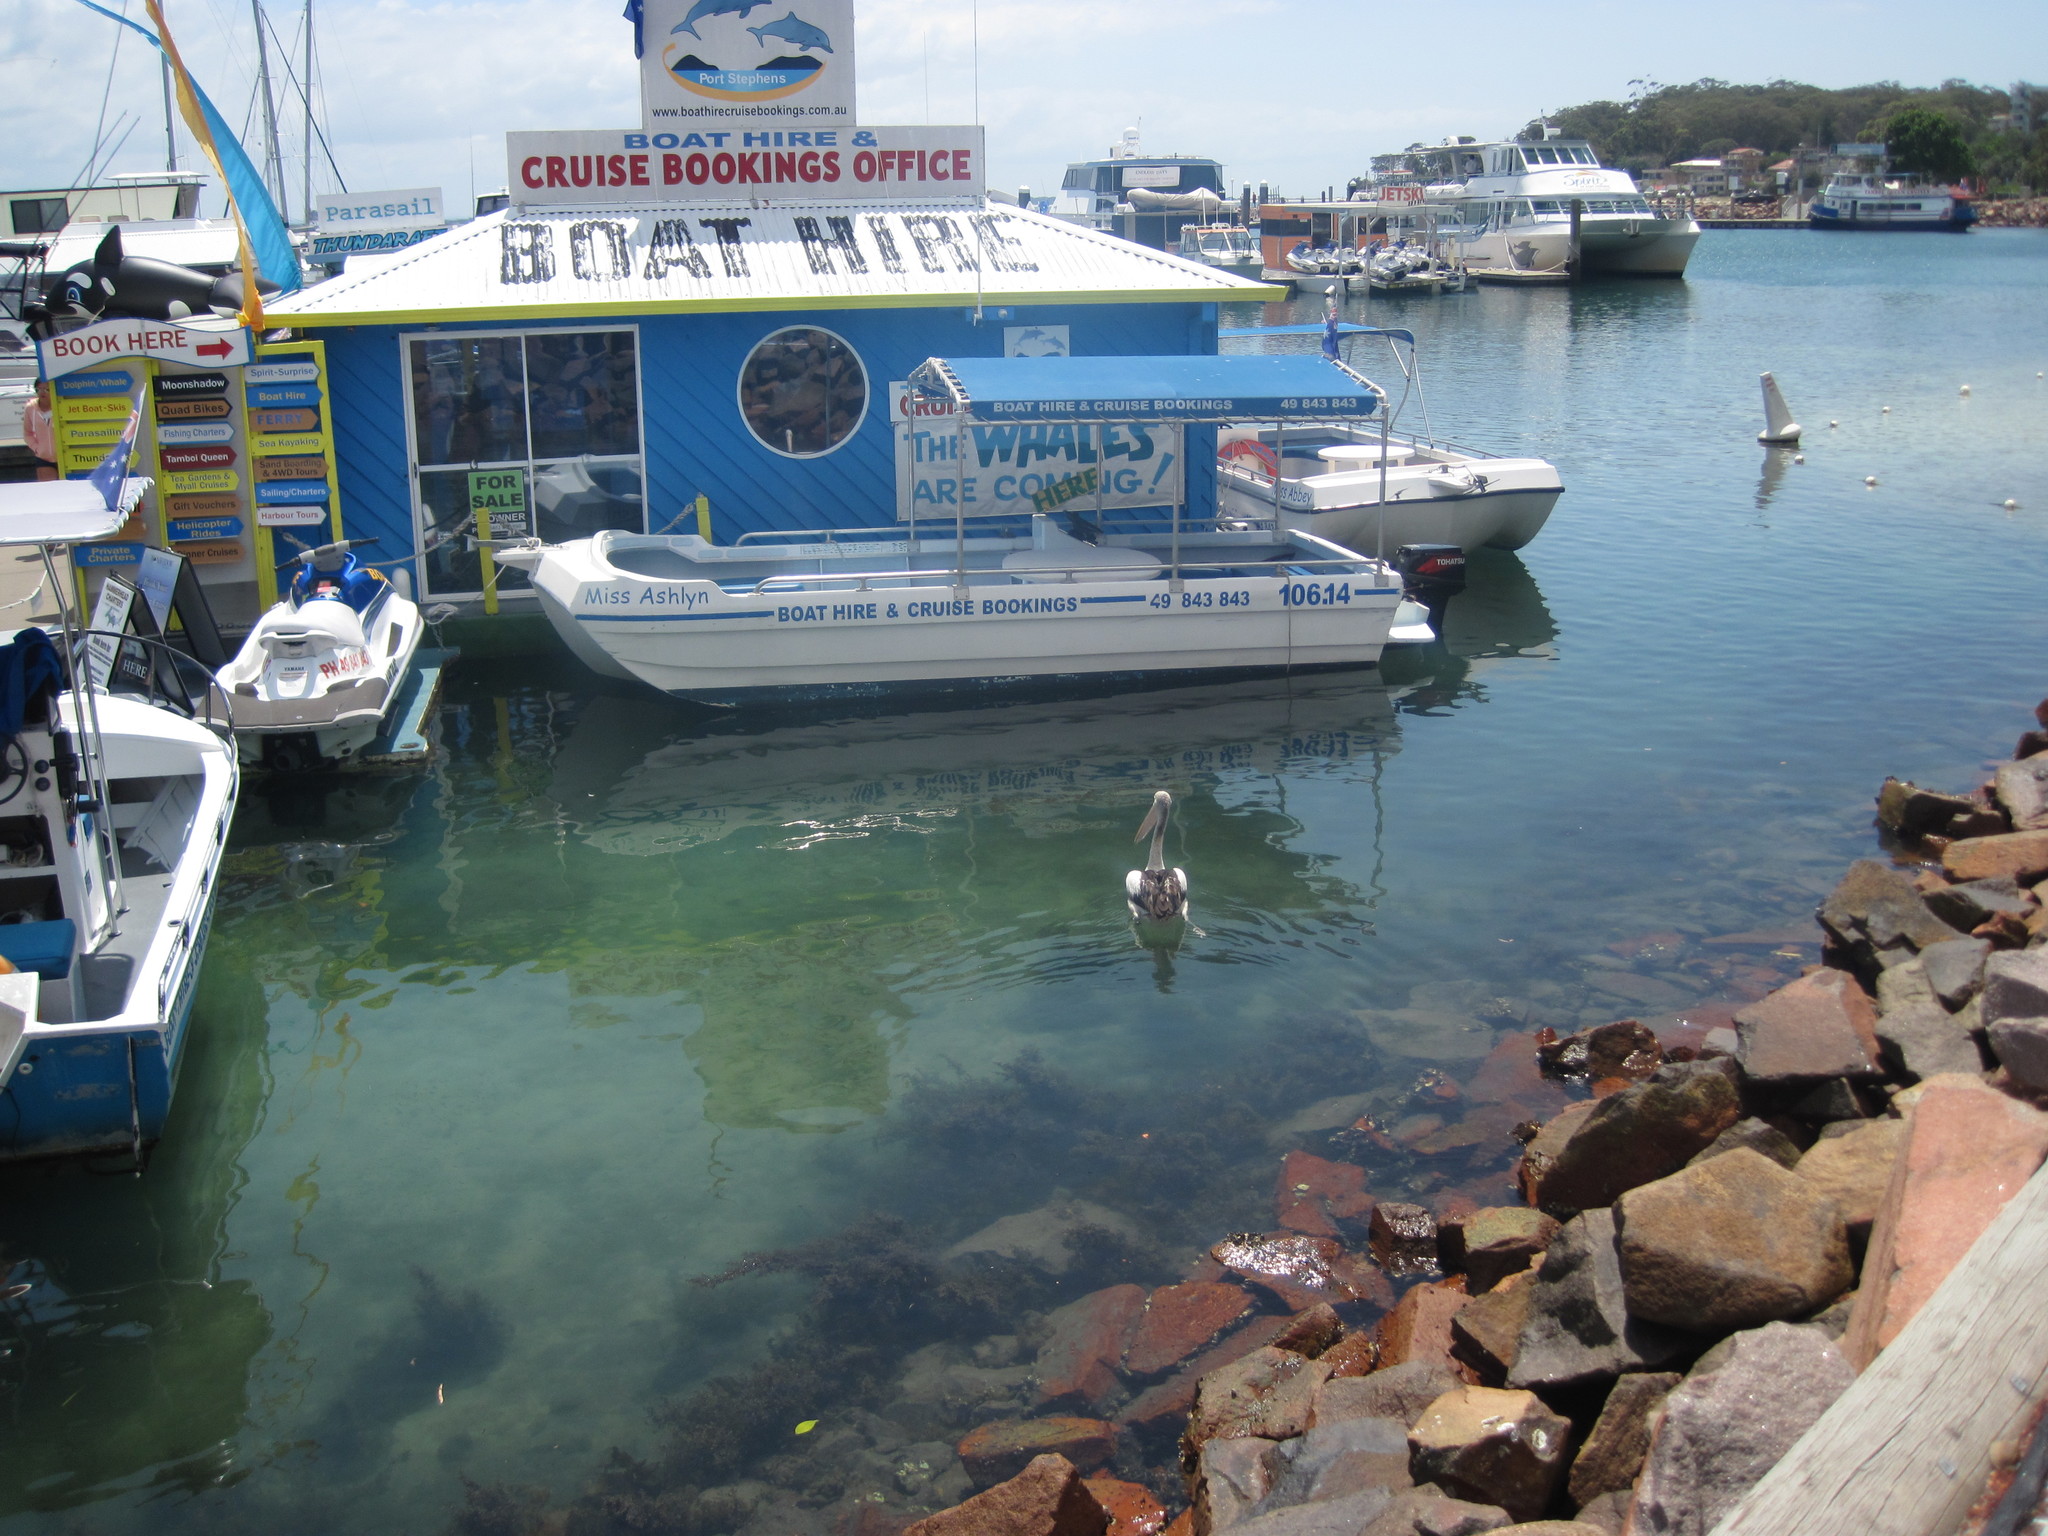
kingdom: Animalia
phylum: Chordata
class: Aves
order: Pelecaniformes
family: Pelecanidae
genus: Pelecanus
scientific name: Pelecanus conspicillatus
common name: Australian pelican
